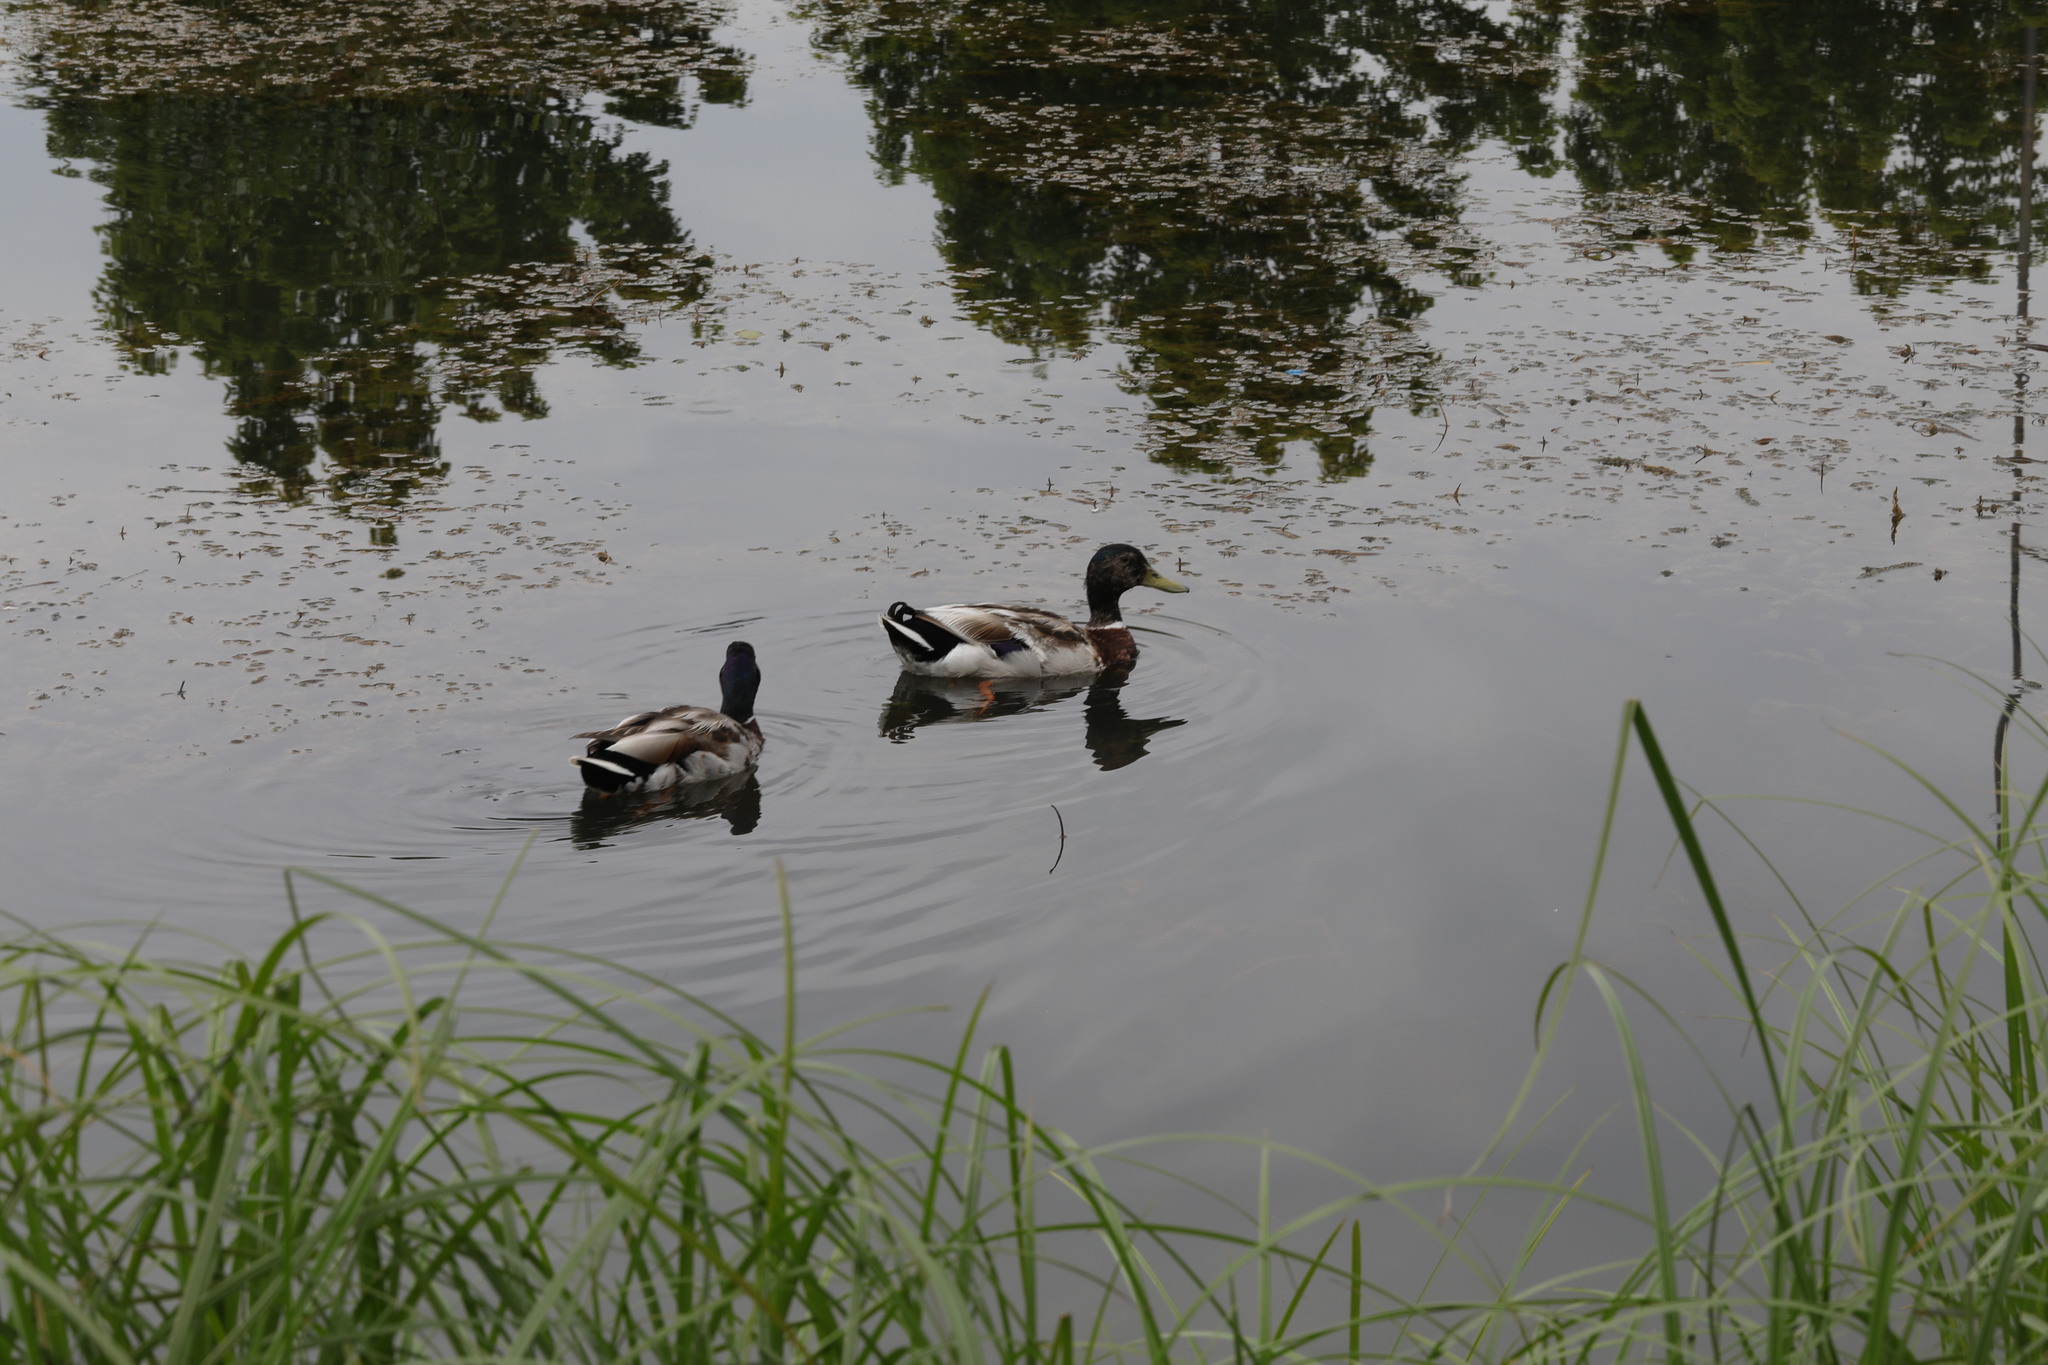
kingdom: Animalia
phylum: Chordata
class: Aves
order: Anseriformes
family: Anatidae
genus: Anas
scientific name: Anas platyrhynchos
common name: Mallard
